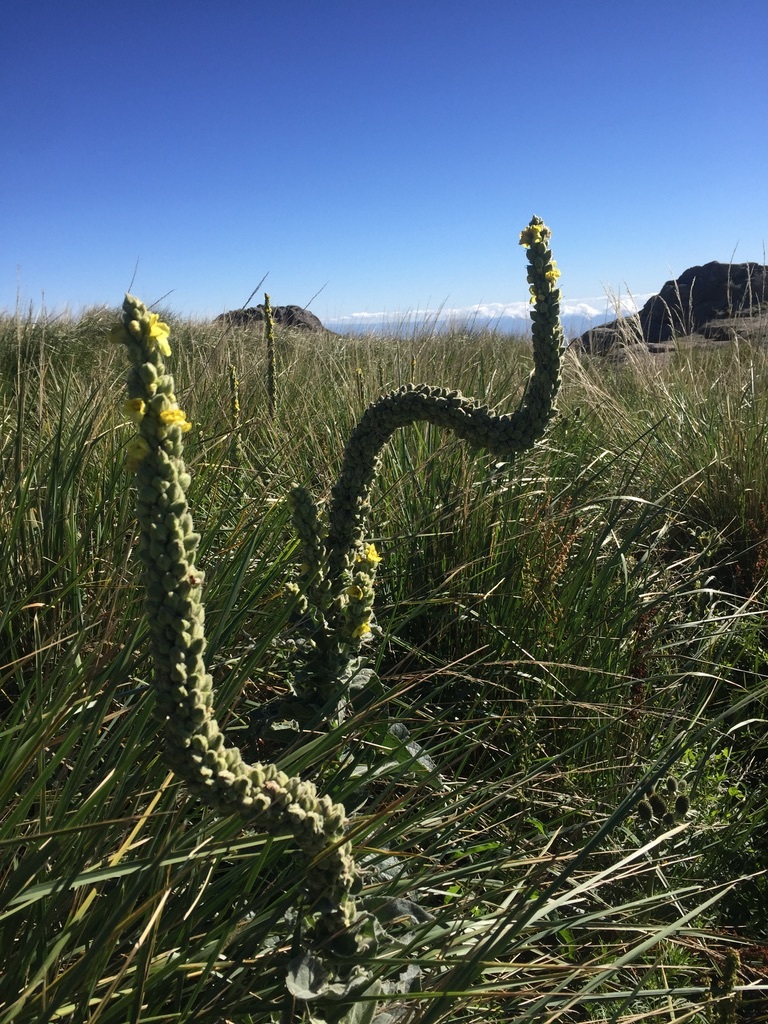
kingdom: Plantae
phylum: Tracheophyta
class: Magnoliopsida
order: Lamiales
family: Scrophulariaceae
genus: Verbascum
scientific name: Verbascum thapsus
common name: Common mullein
